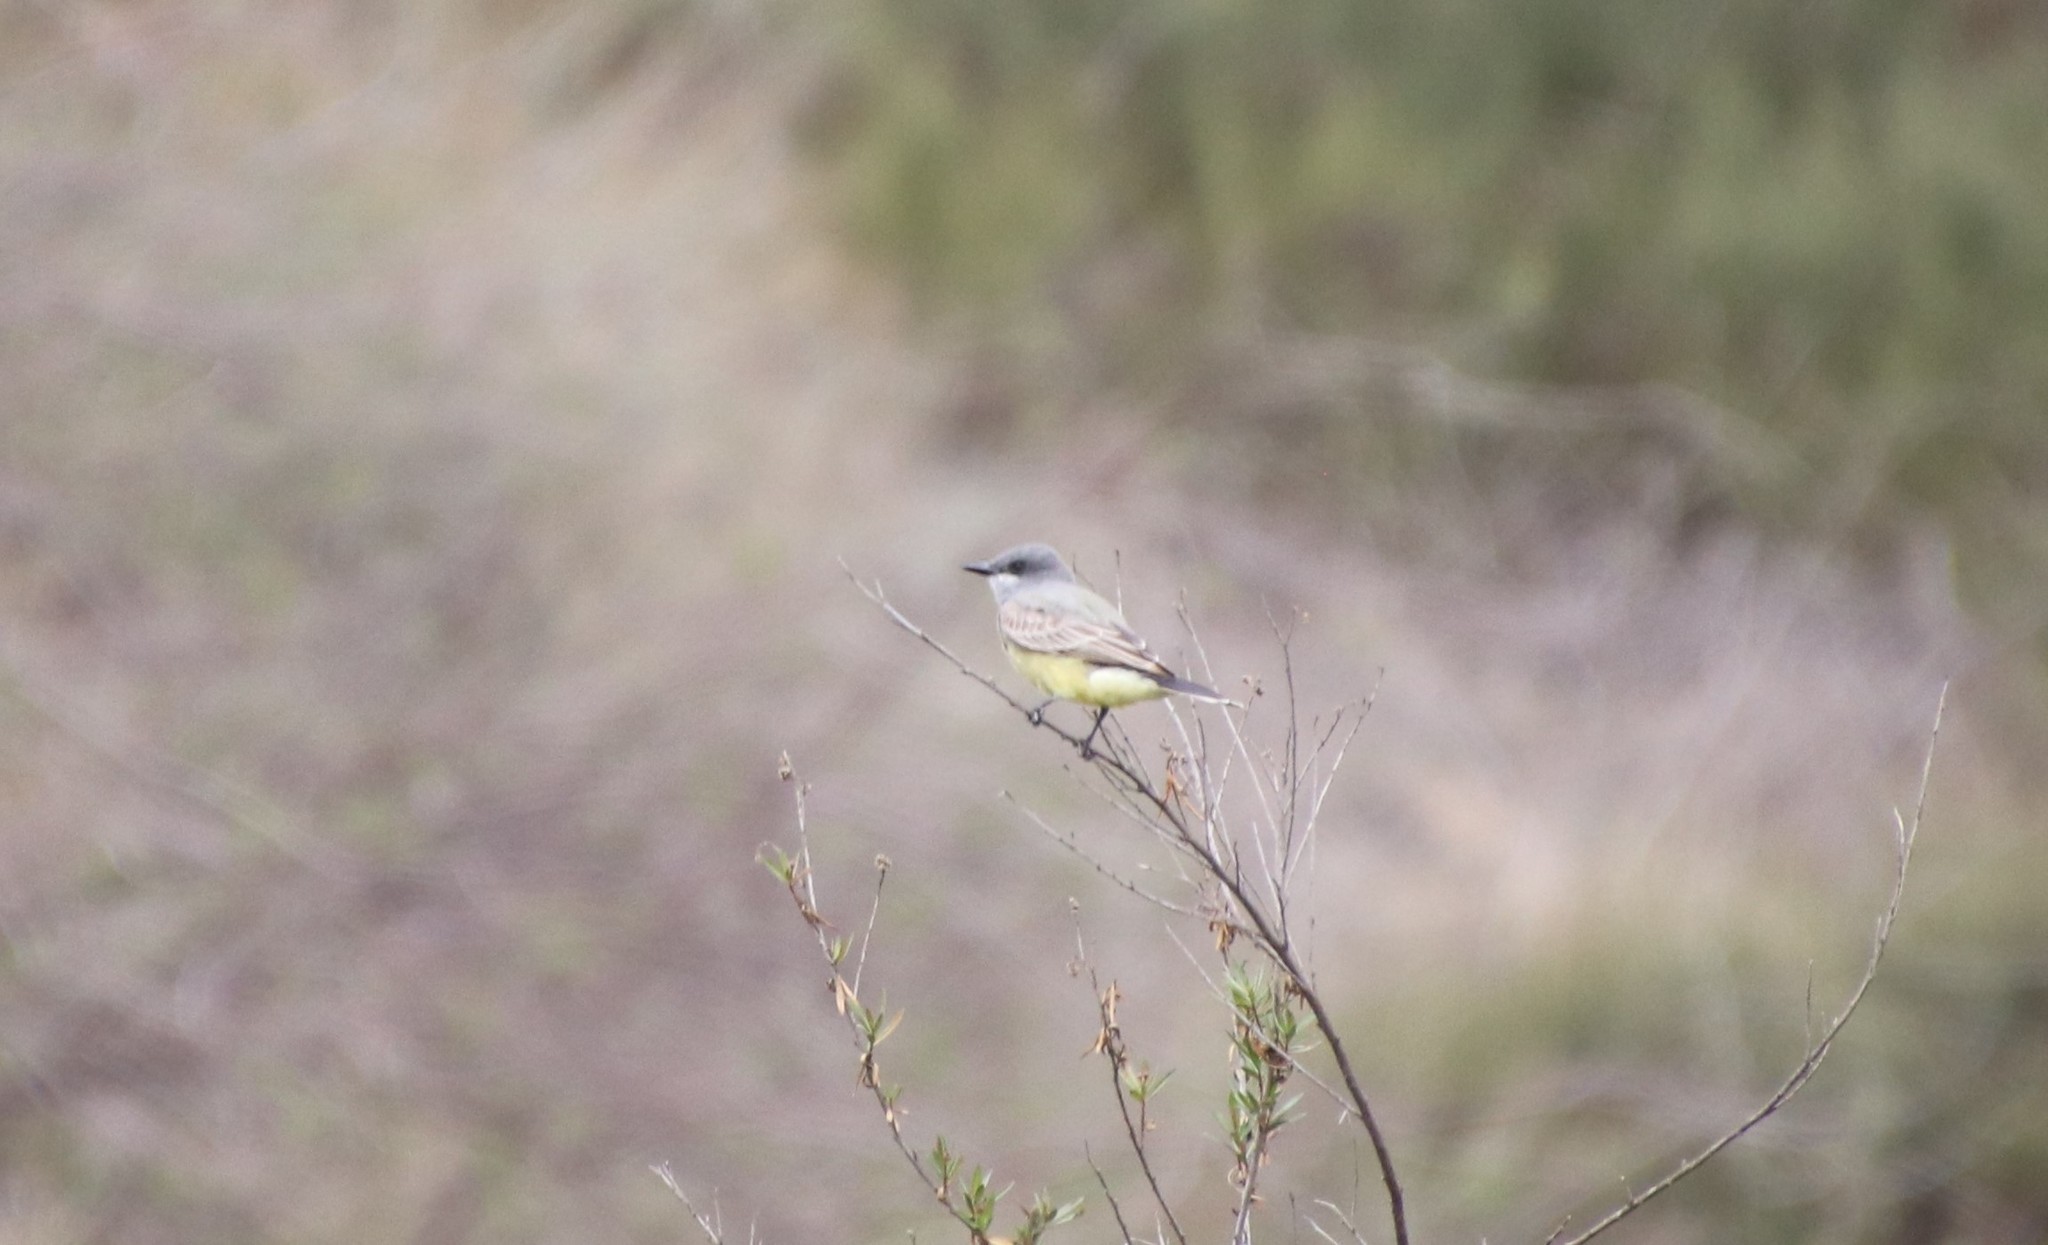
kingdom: Animalia
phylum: Chordata
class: Aves
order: Passeriformes
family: Tyrannidae
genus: Tyrannus
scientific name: Tyrannus vociferans
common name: Cassin's kingbird
